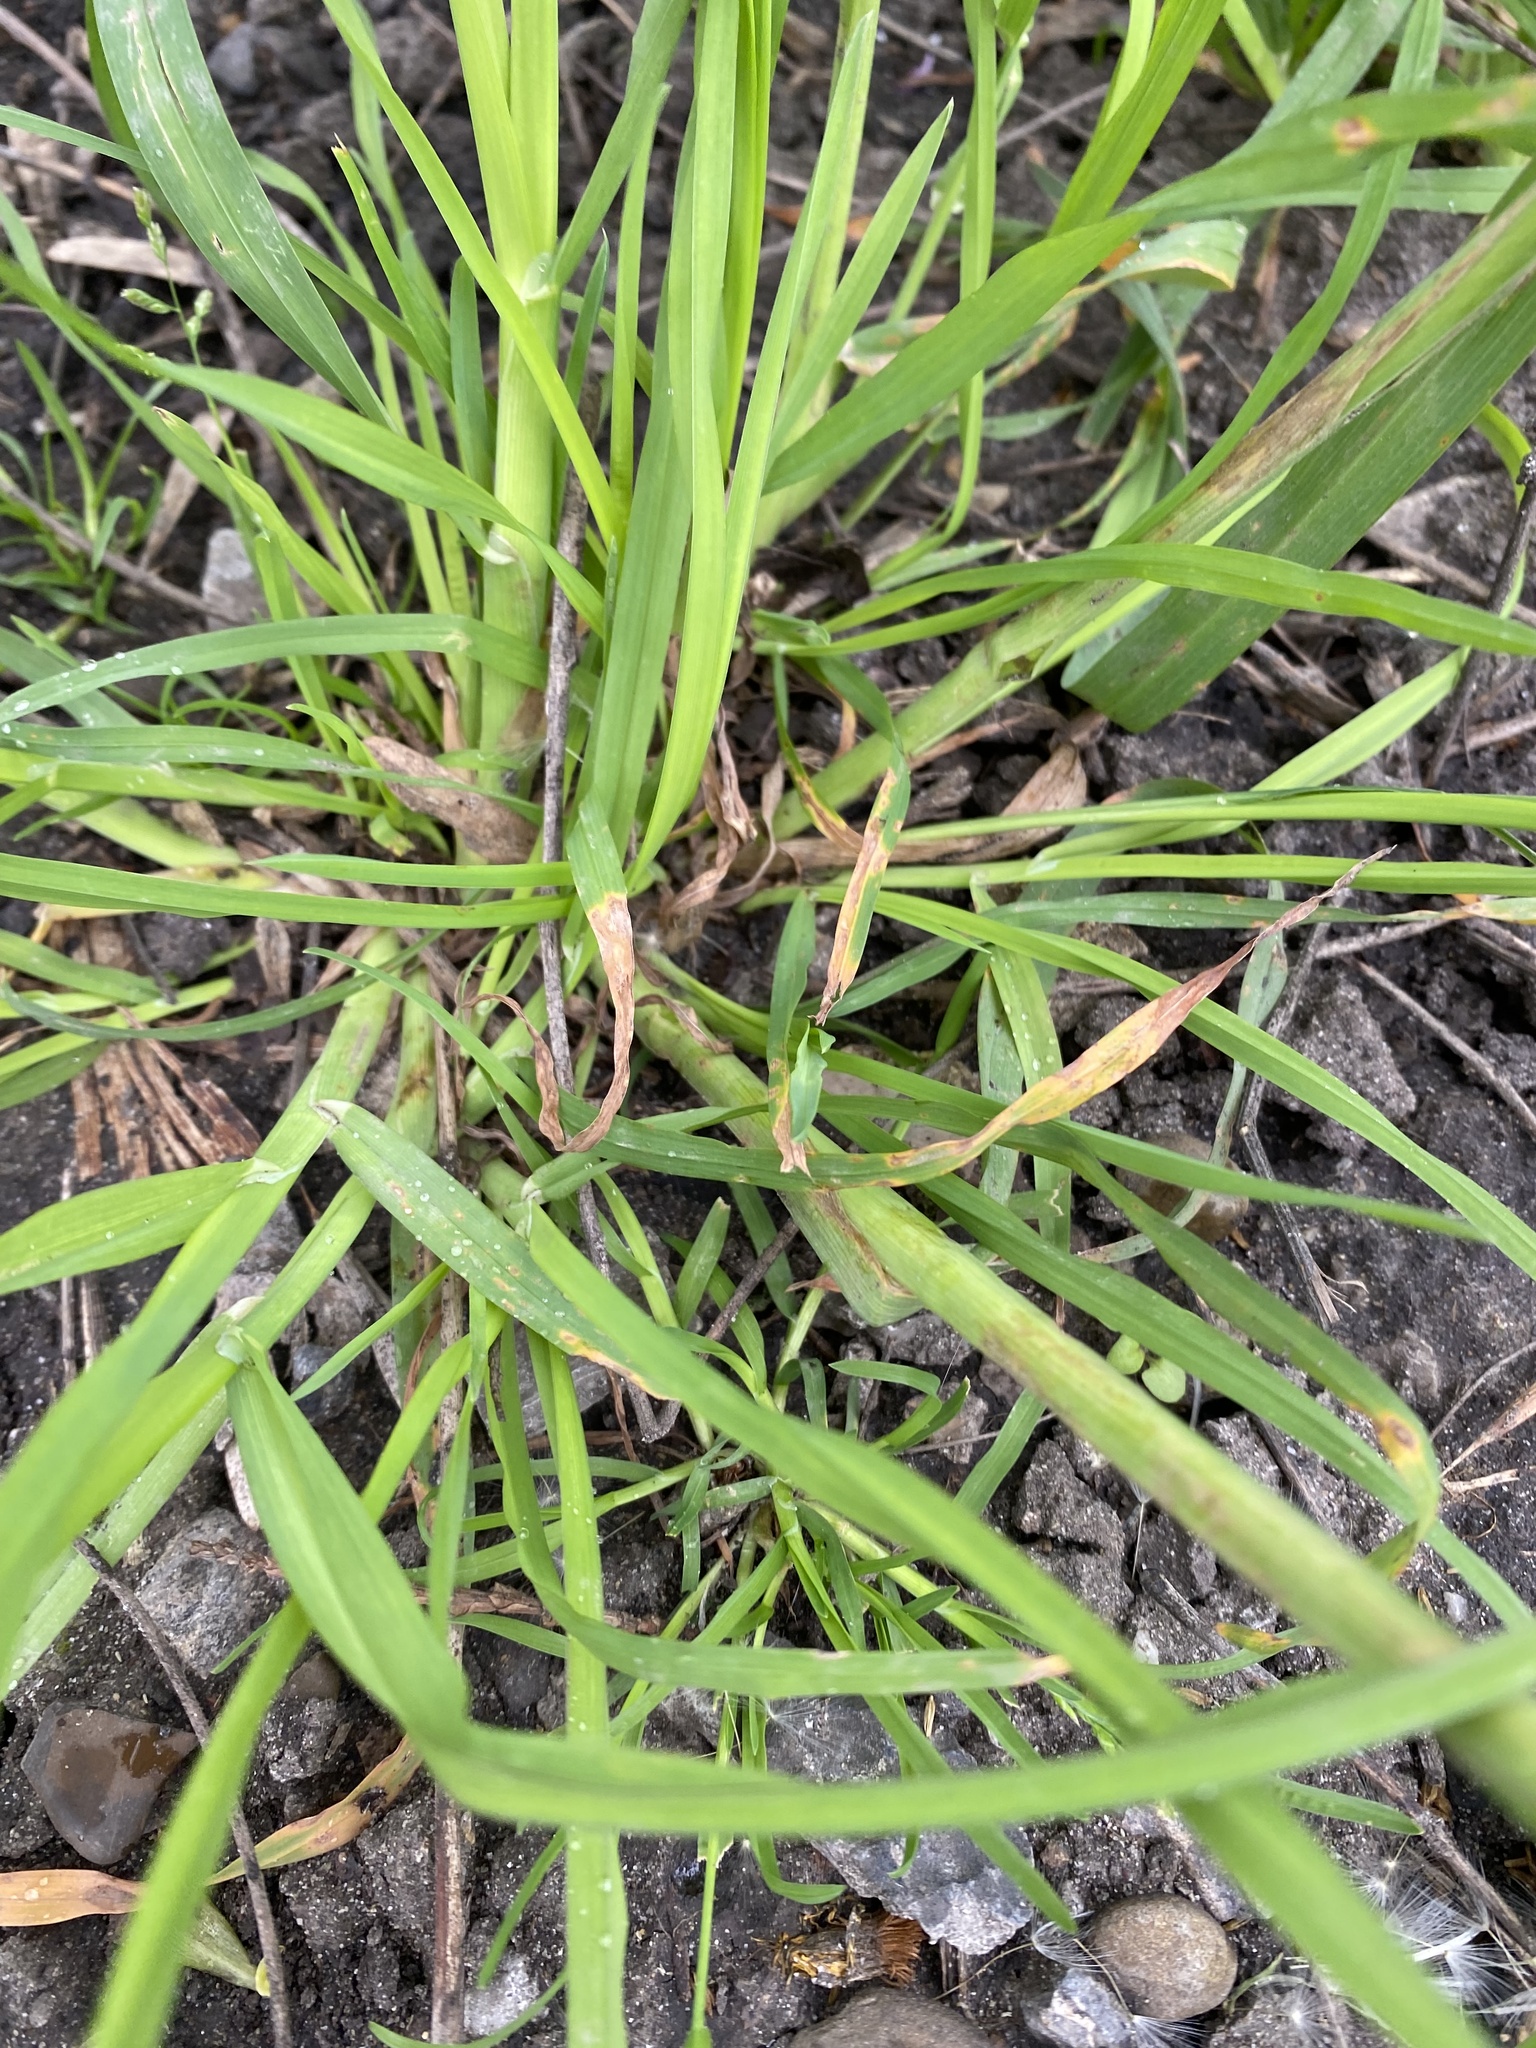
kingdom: Plantae
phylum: Tracheophyta
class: Liliopsida
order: Poales
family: Poaceae
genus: Dactylis
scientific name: Dactylis glomerata
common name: Orchardgrass
